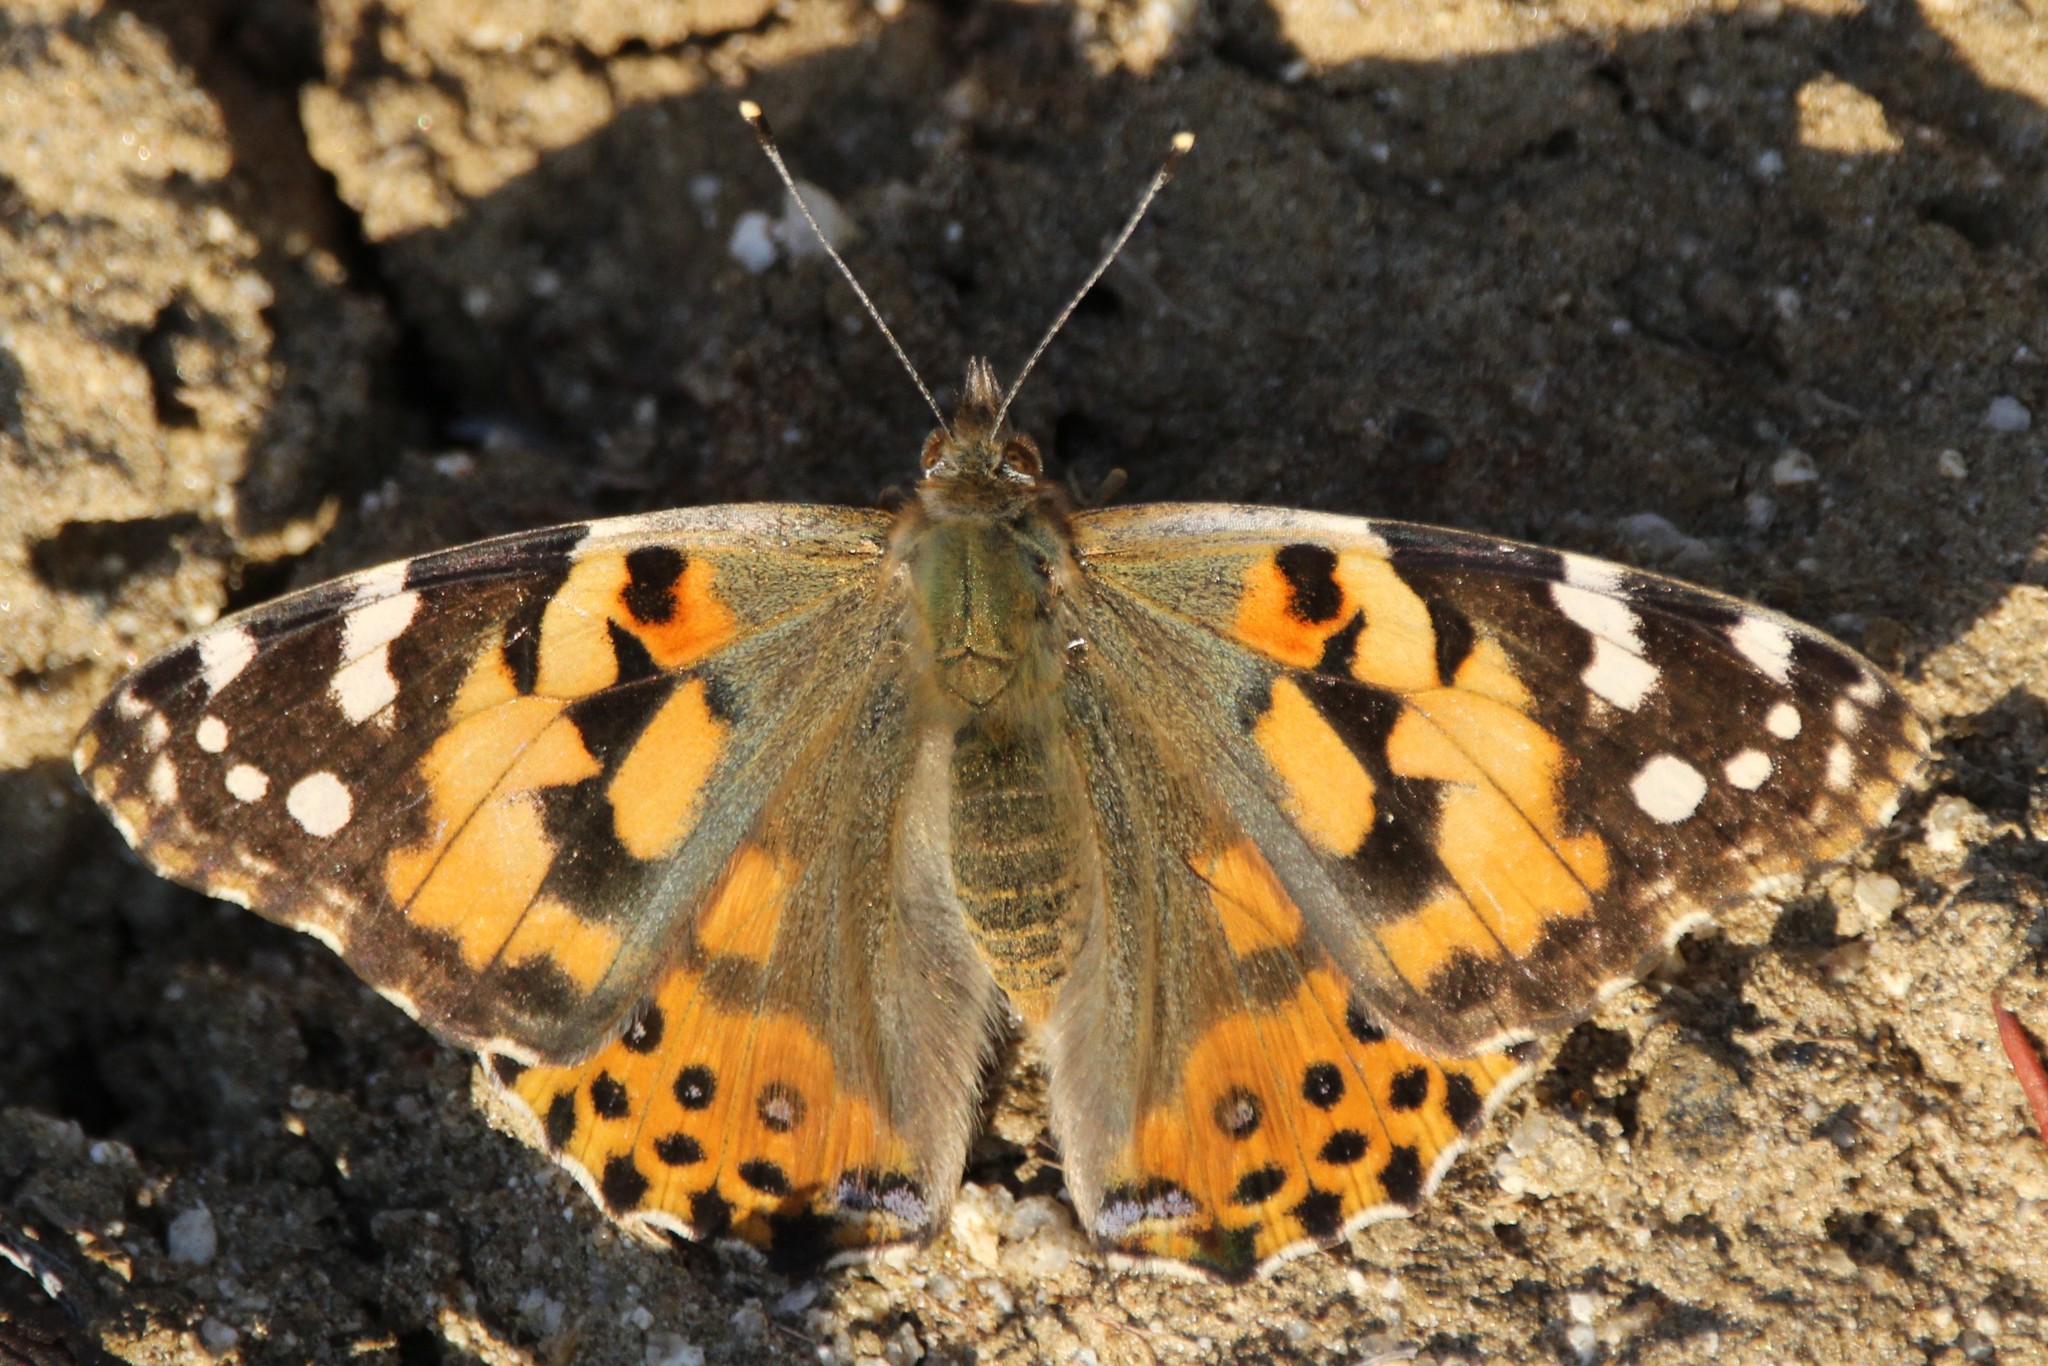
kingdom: Animalia
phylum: Arthropoda
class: Insecta
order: Lepidoptera
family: Nymphalidae
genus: Vanessa
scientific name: Vanessa cardui
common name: Painted lady
